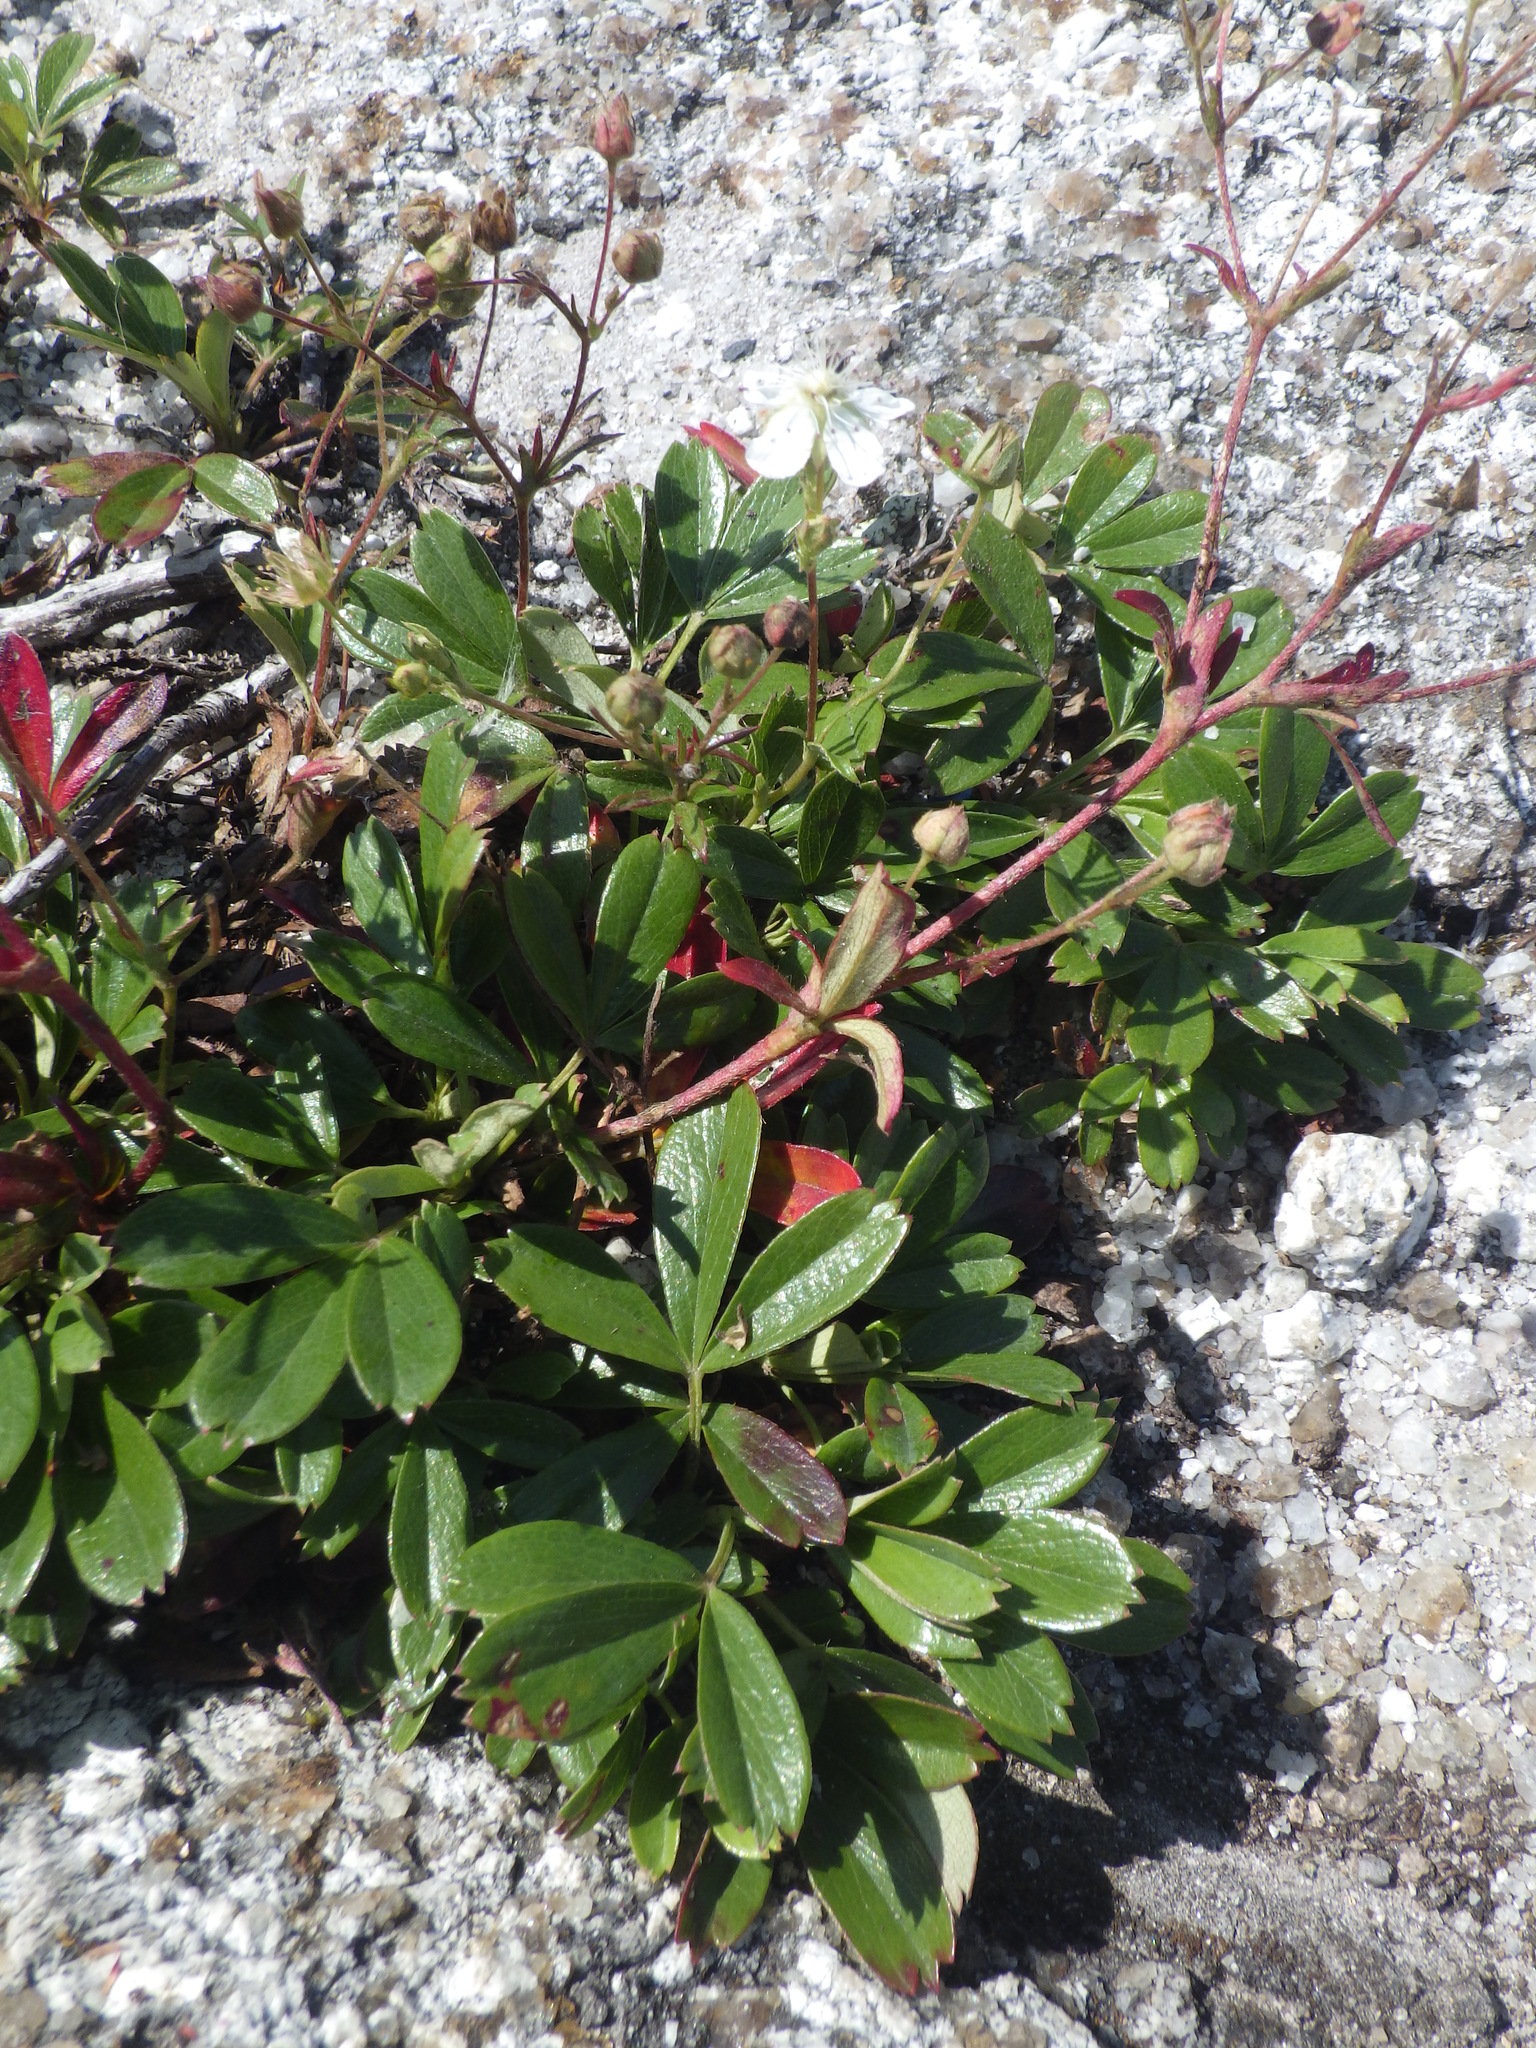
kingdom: Plantae
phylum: Tracheophyta
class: Magnoliopsida
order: Rosales
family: Rosaceae
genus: Sibbaldia
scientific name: Sibbaldia tridentata
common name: Three-toothed cinquefoil
